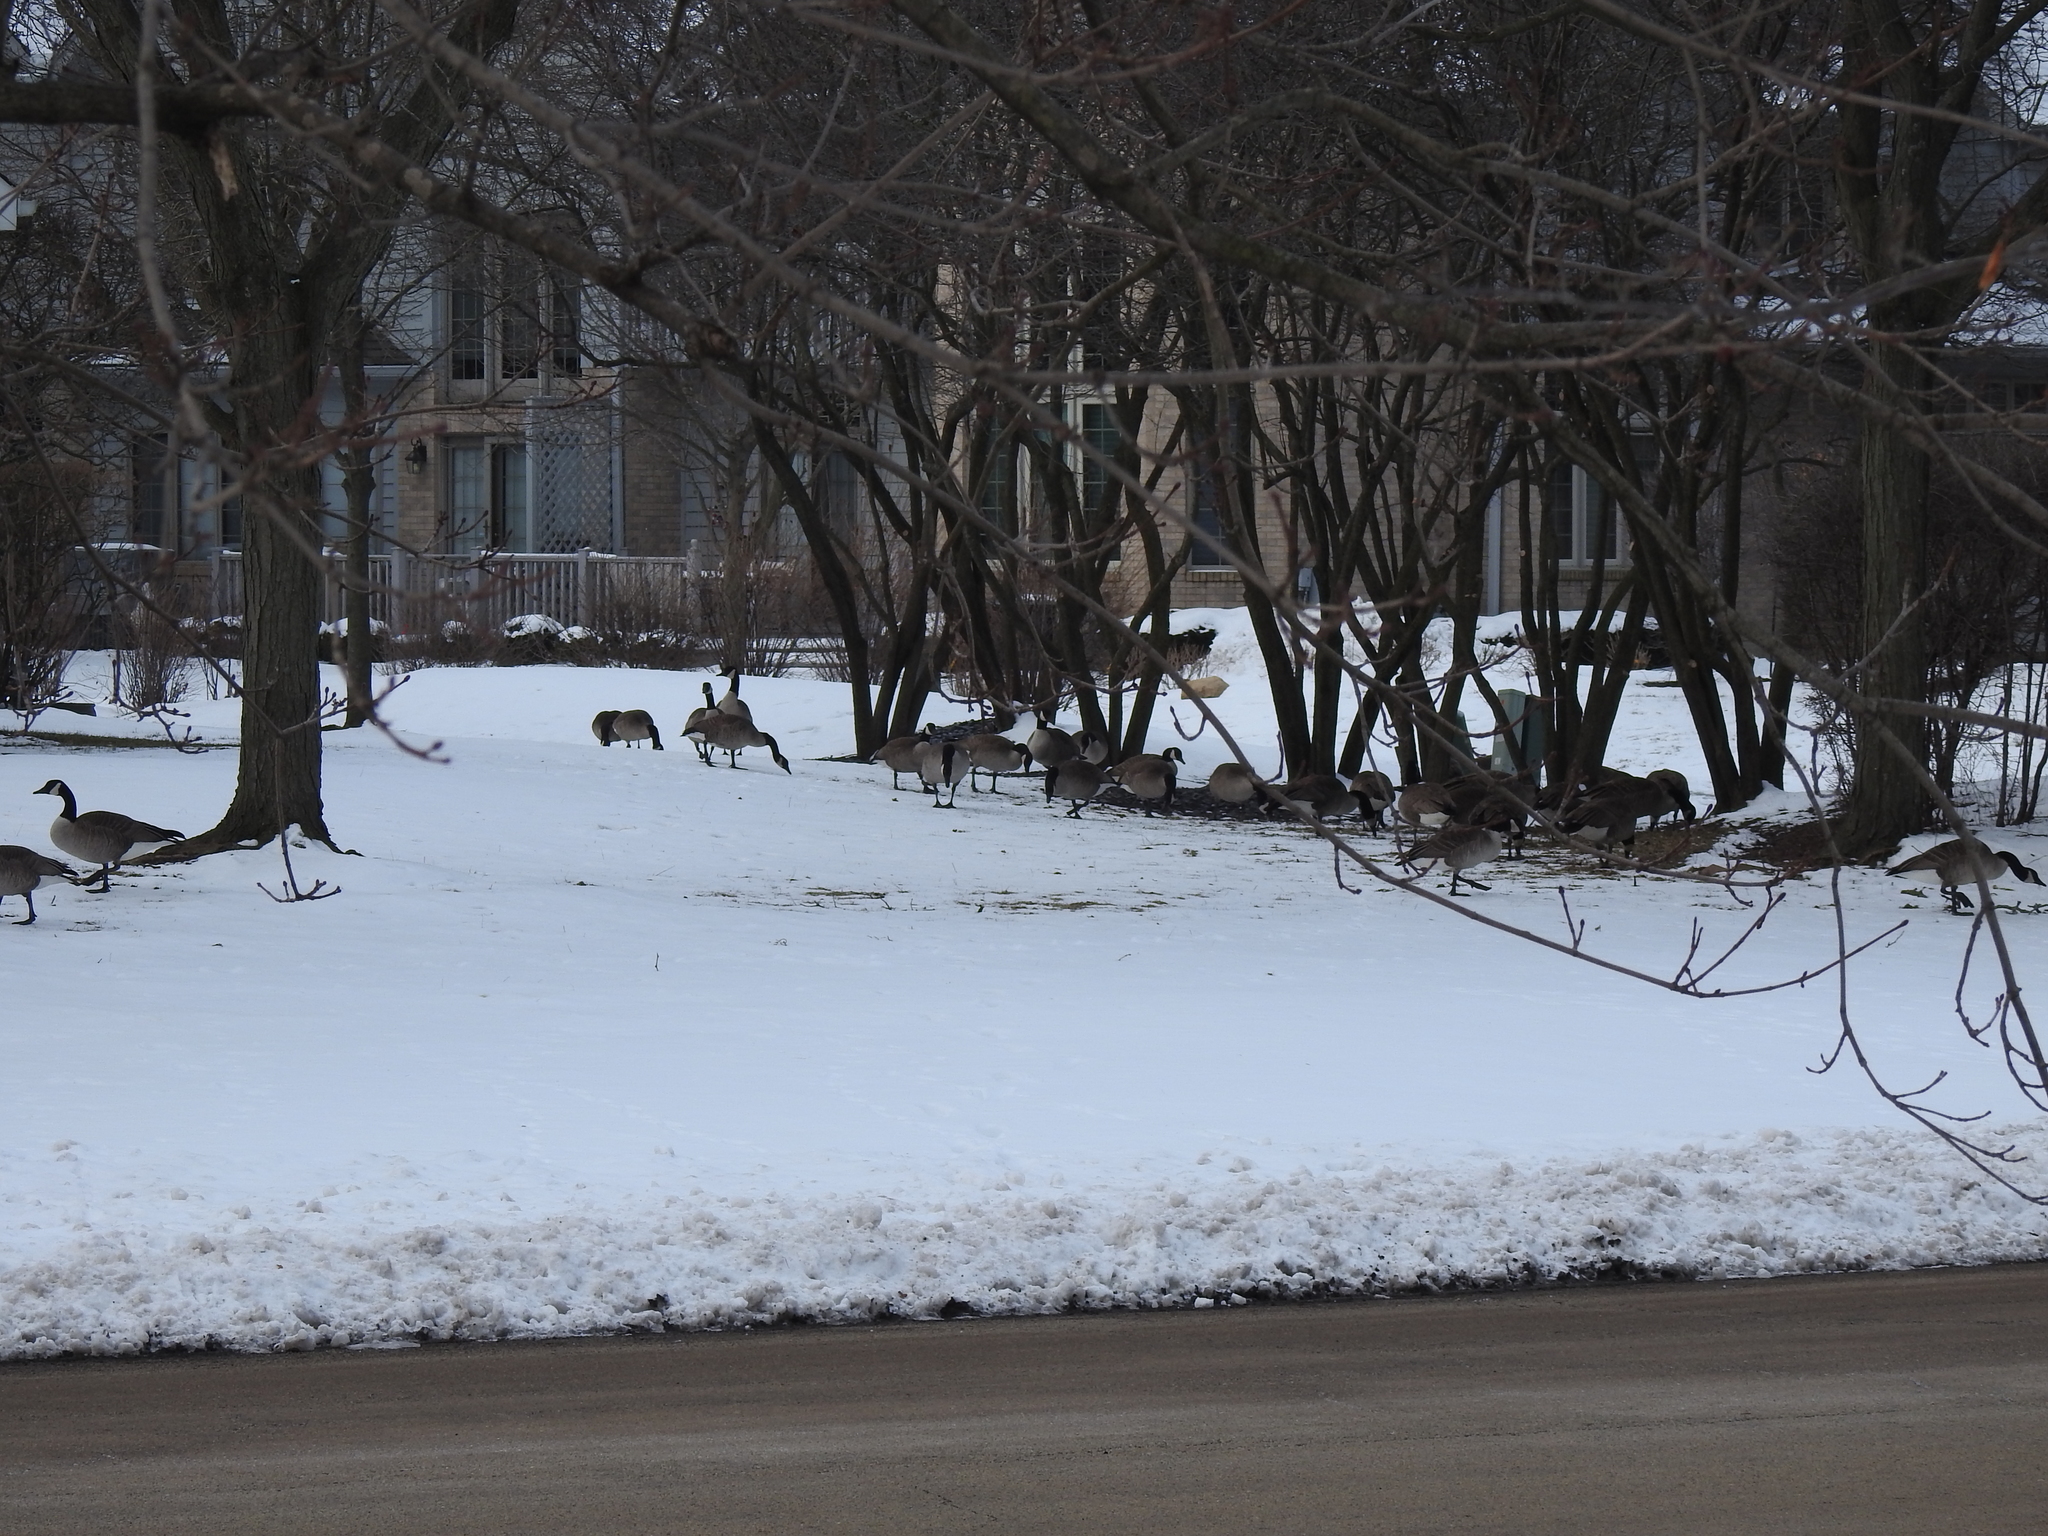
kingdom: Animalia
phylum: Chordata
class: Aves
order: Anseriformes
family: Anatidae
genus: Branta
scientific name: Branta canadensis
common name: Canada goose
